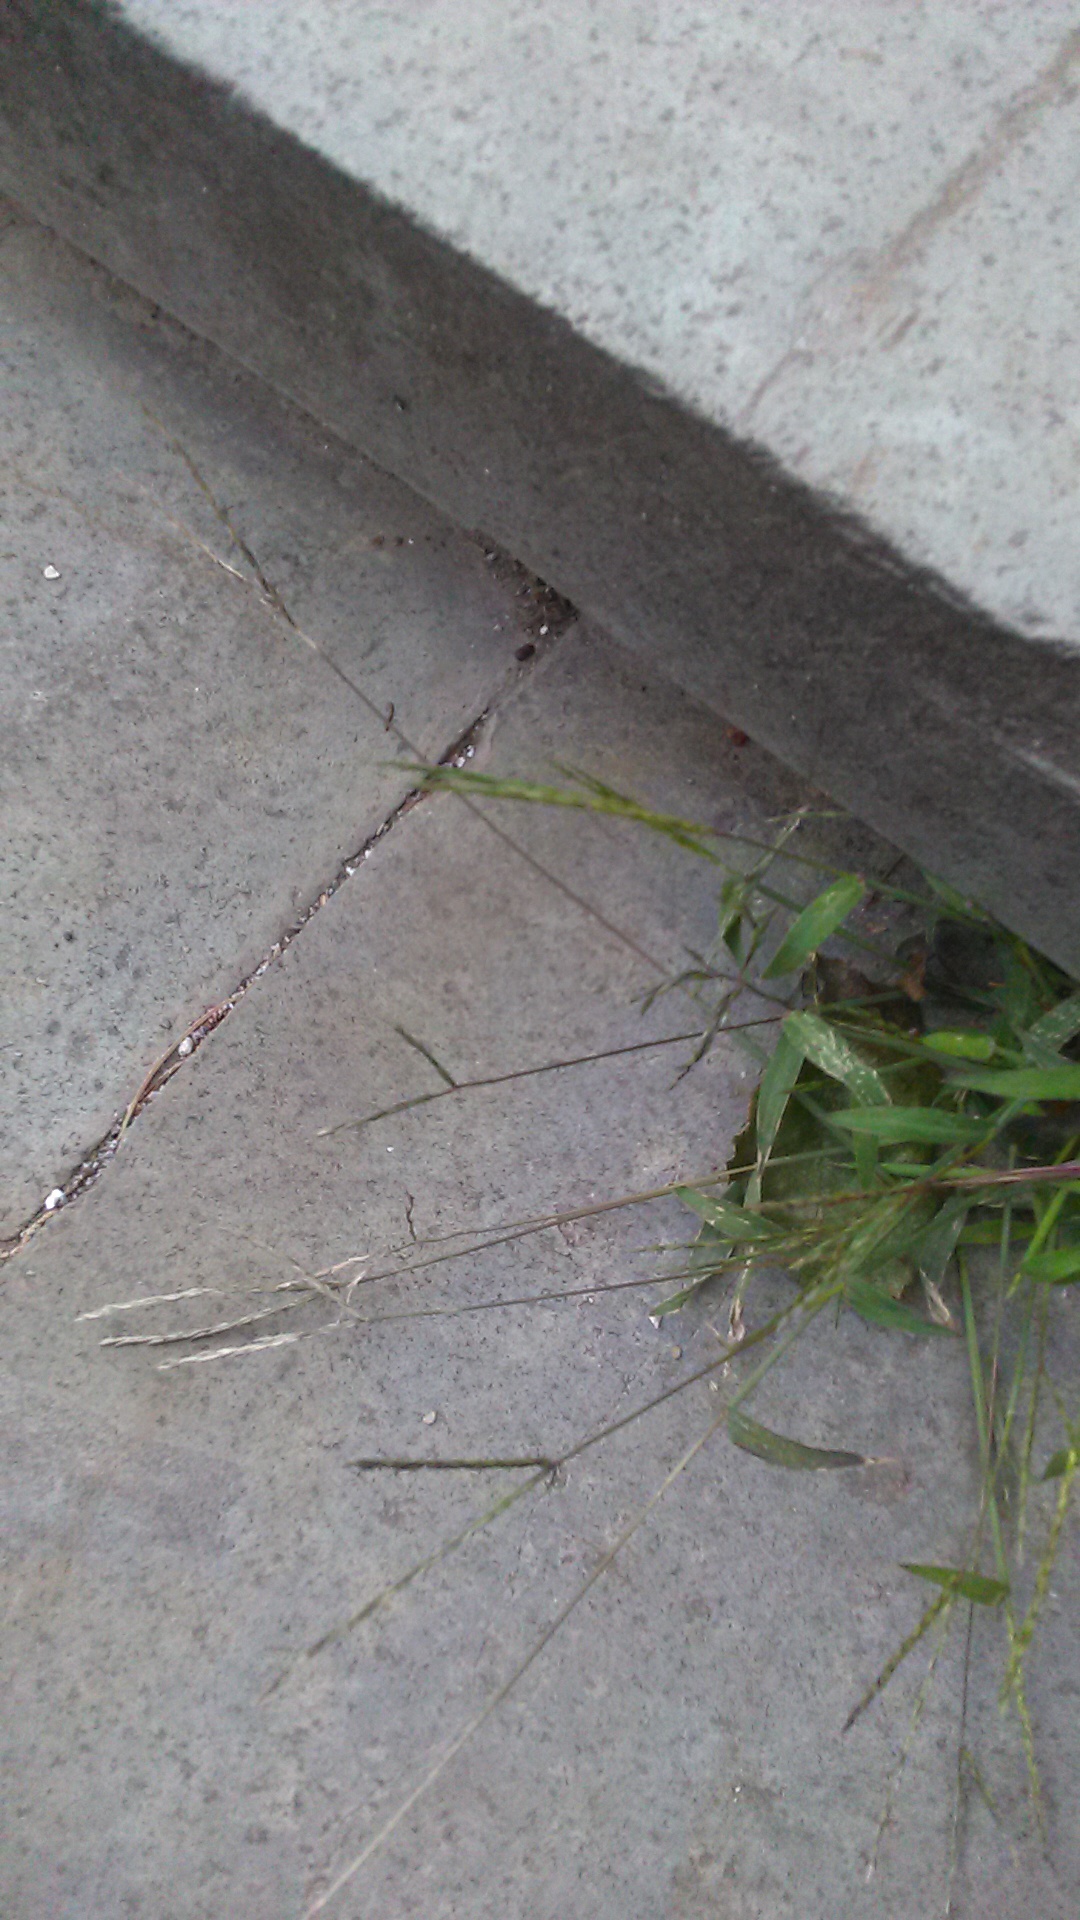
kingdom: Plantae
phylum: Tracheophyta
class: Liliopsida
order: Poales
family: Poaceae
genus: Digitaria
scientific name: Digitaria sanguinalis
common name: Hairy crabgrass
